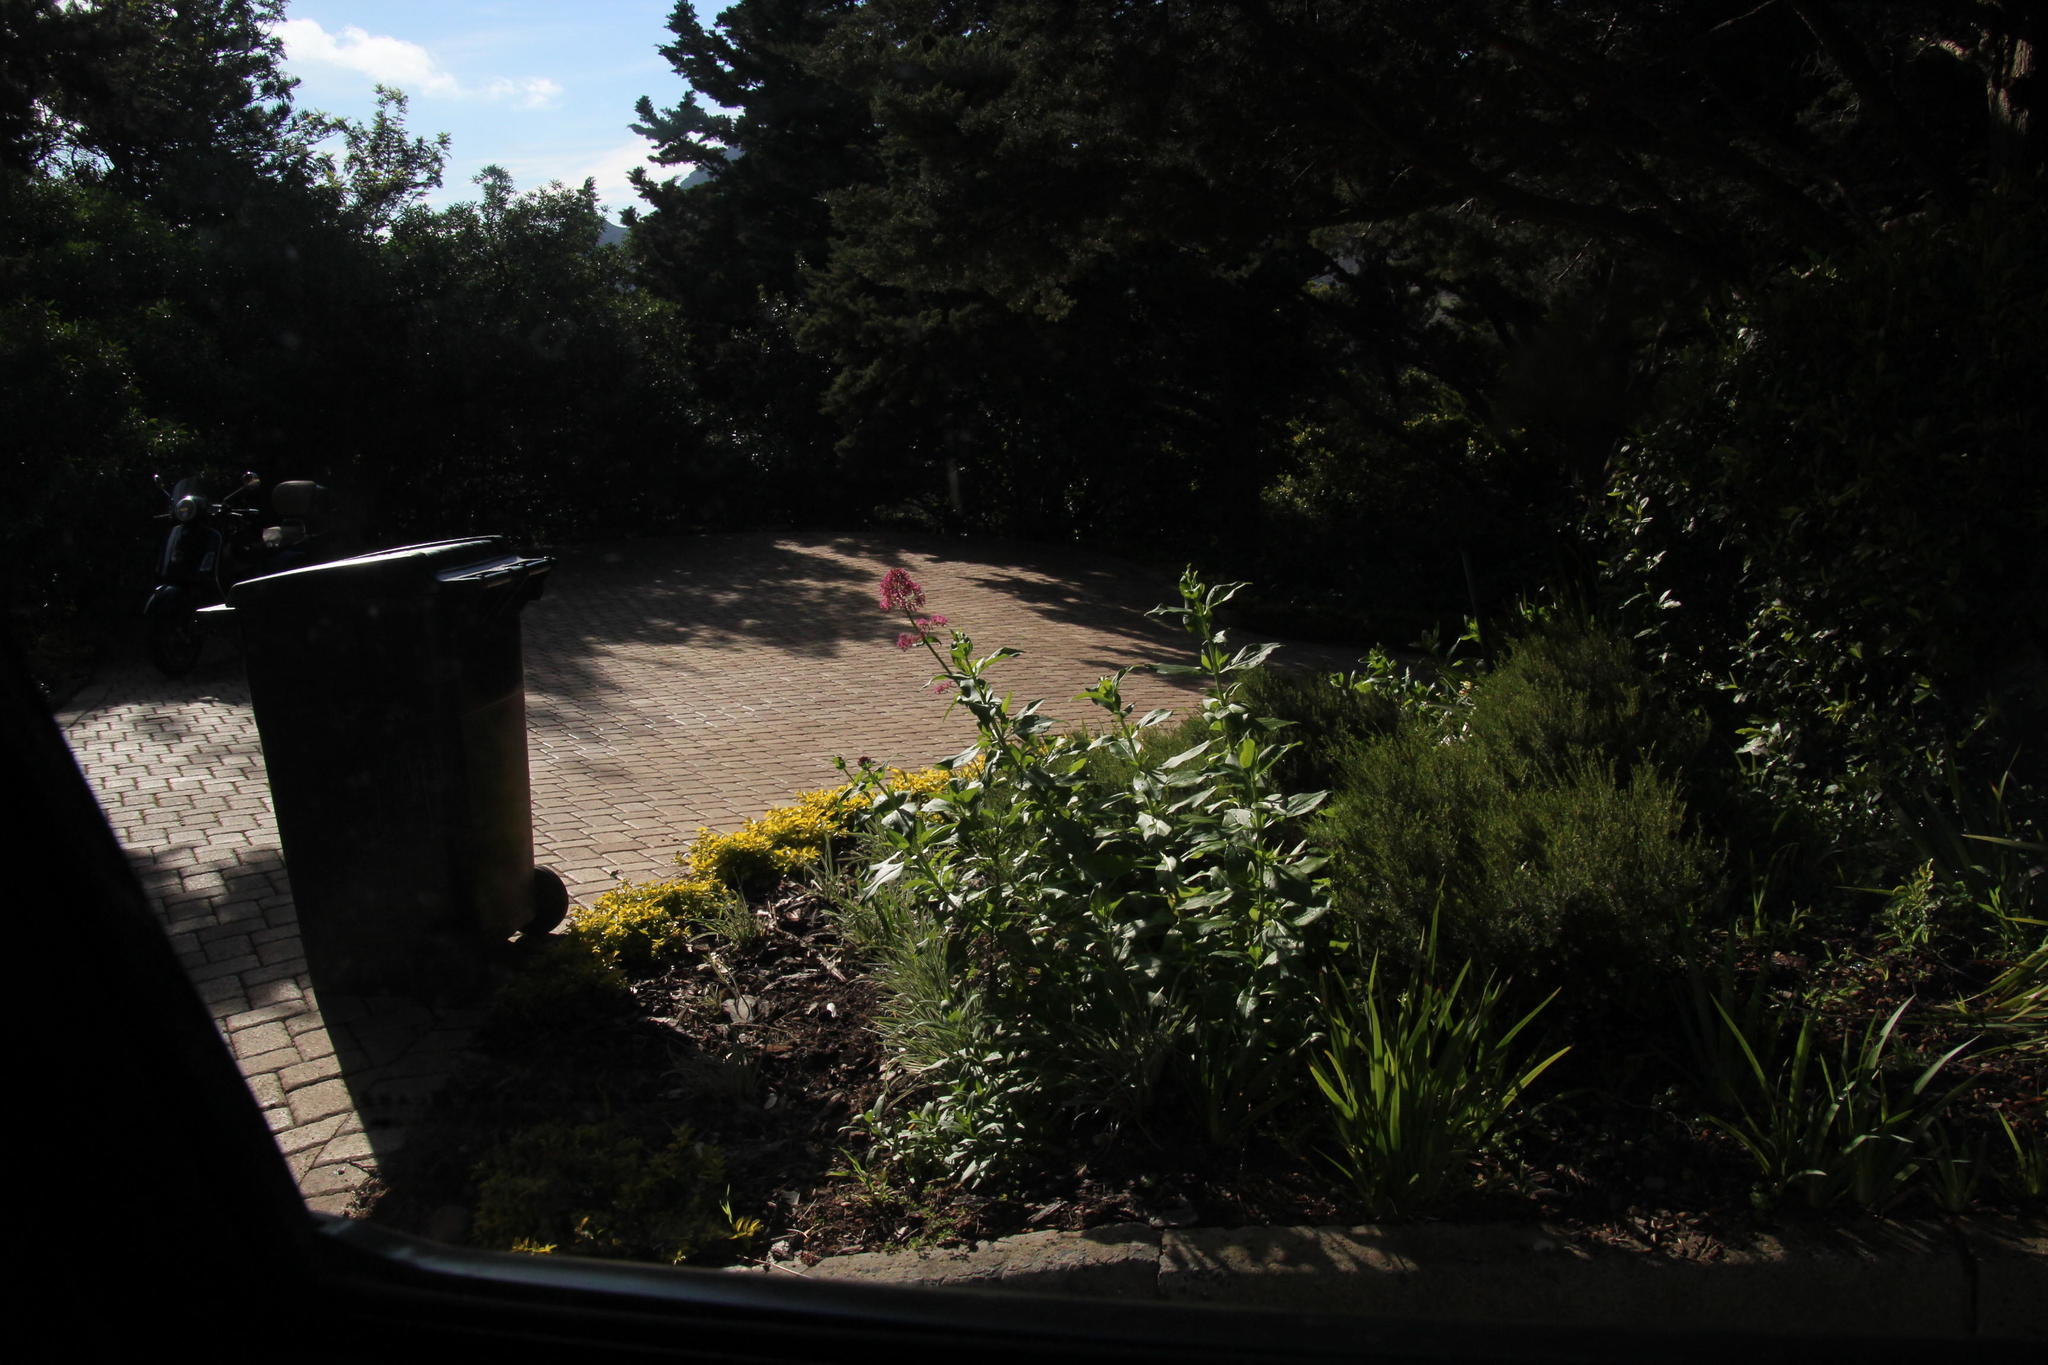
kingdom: Plantae
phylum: Tracheophyta
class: Magnoliopsida
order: Dipsacales
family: Caprifoliaceae
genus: Centranthus
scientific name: Centranthus ruber
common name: Red valerian
